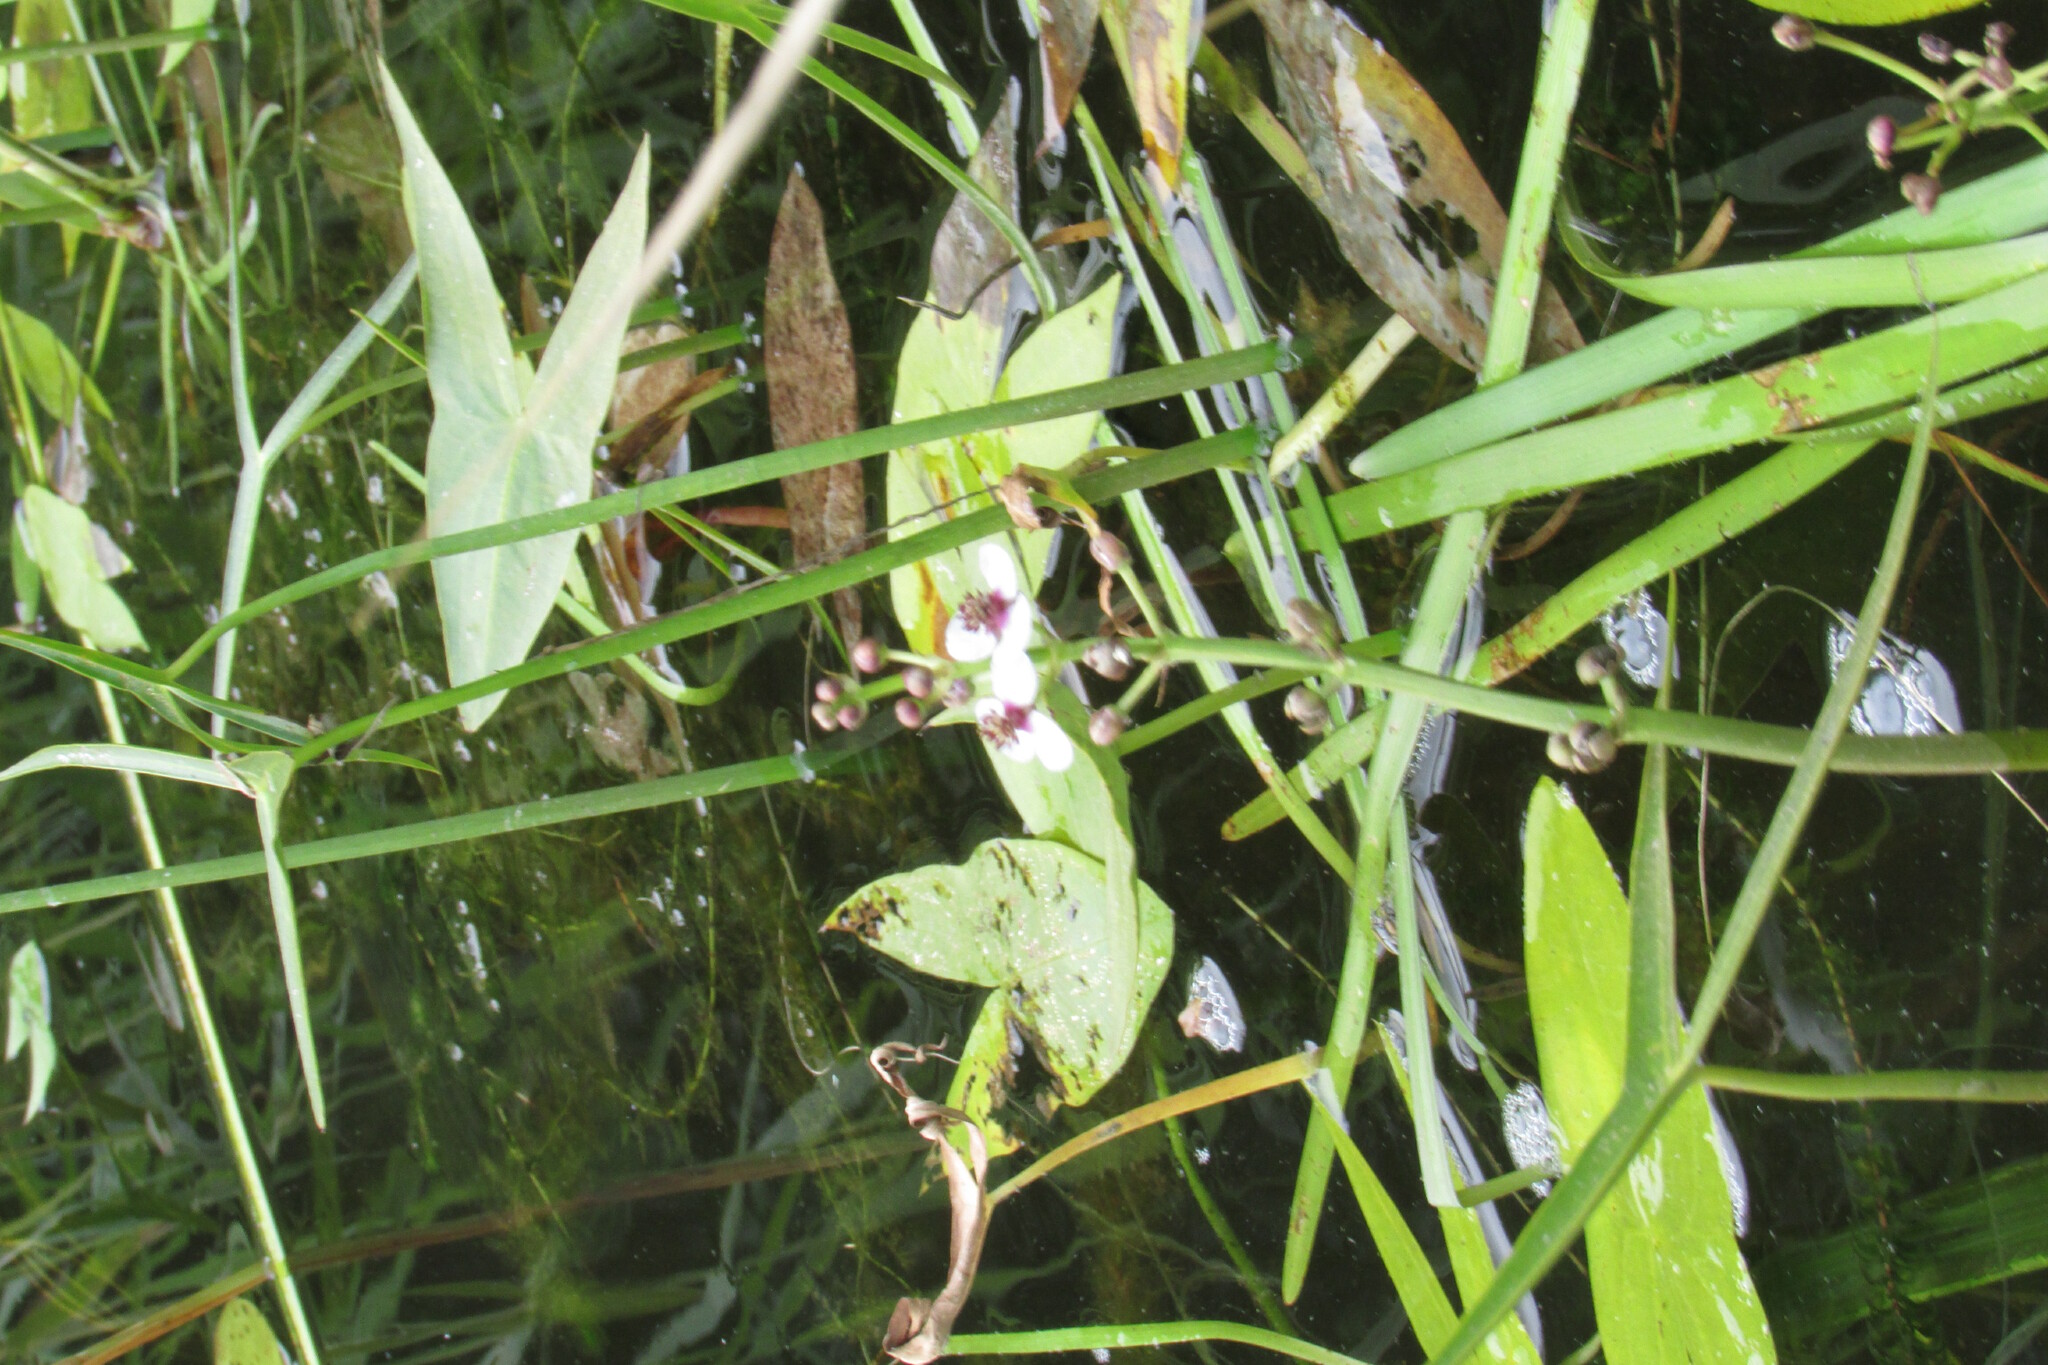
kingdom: Plantae
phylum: Tracheophyta
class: Liliopsida
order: Alismatales
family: Alismataceae
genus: Sagittaria
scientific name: Sagittaria sagittifolia
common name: Arrowhead
